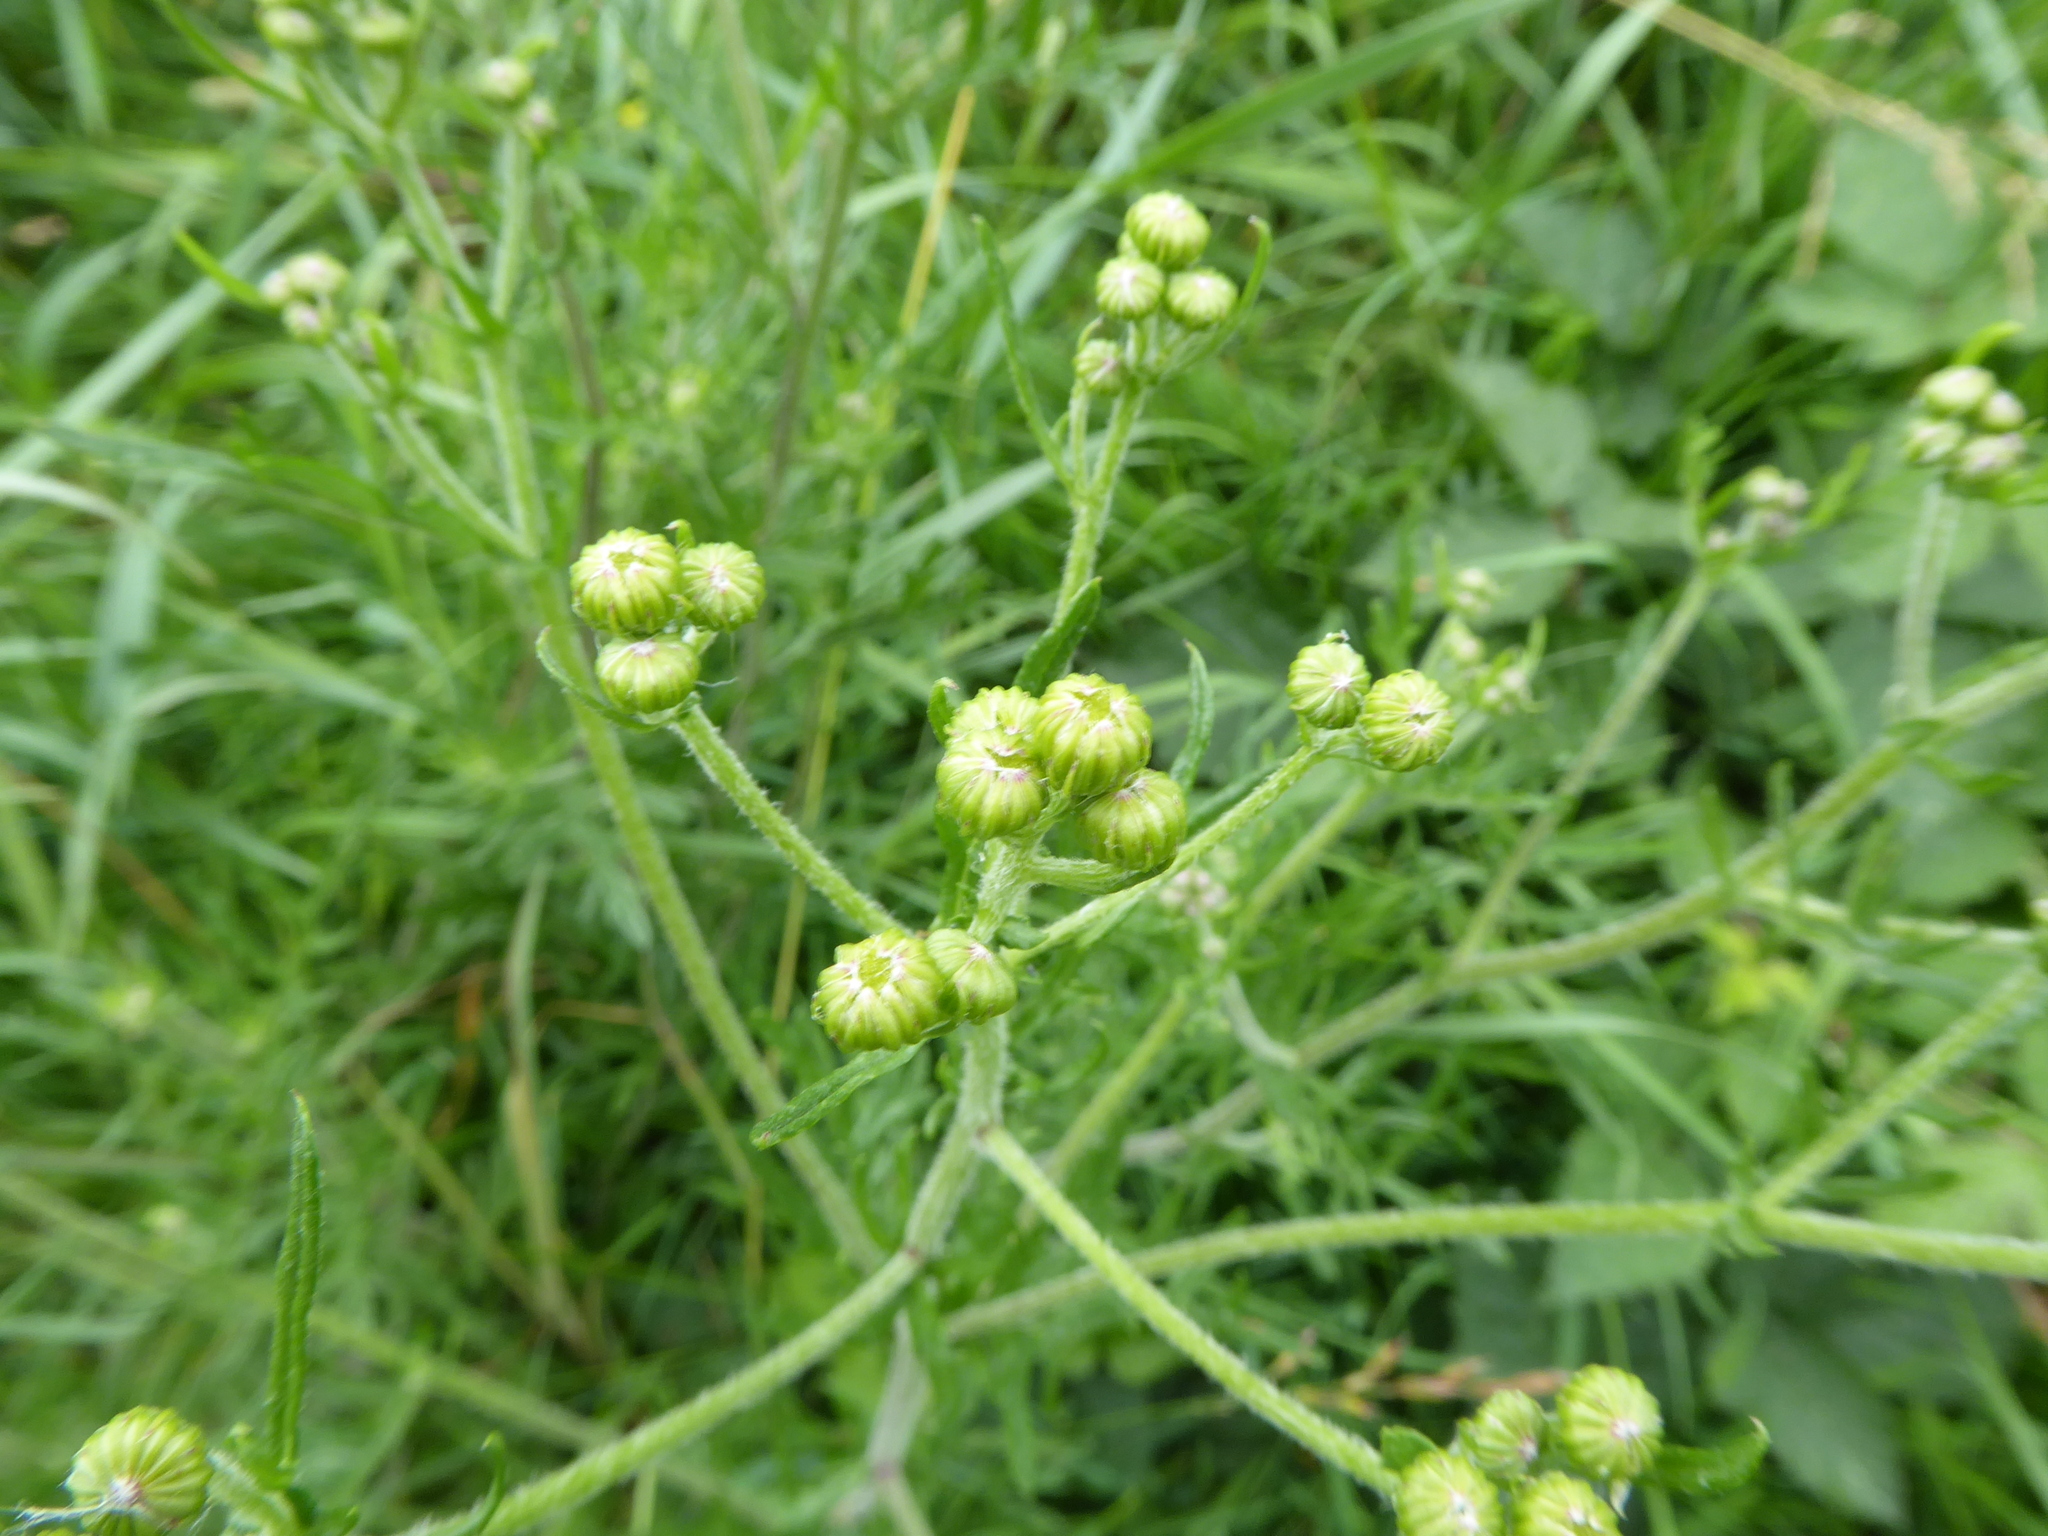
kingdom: Plantae
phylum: Tracheophyta
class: Magnoliopsida
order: Asterales
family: Asteraceae
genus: Jacobaea
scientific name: Jacobaea erucifolia
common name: Hoary ragwort
